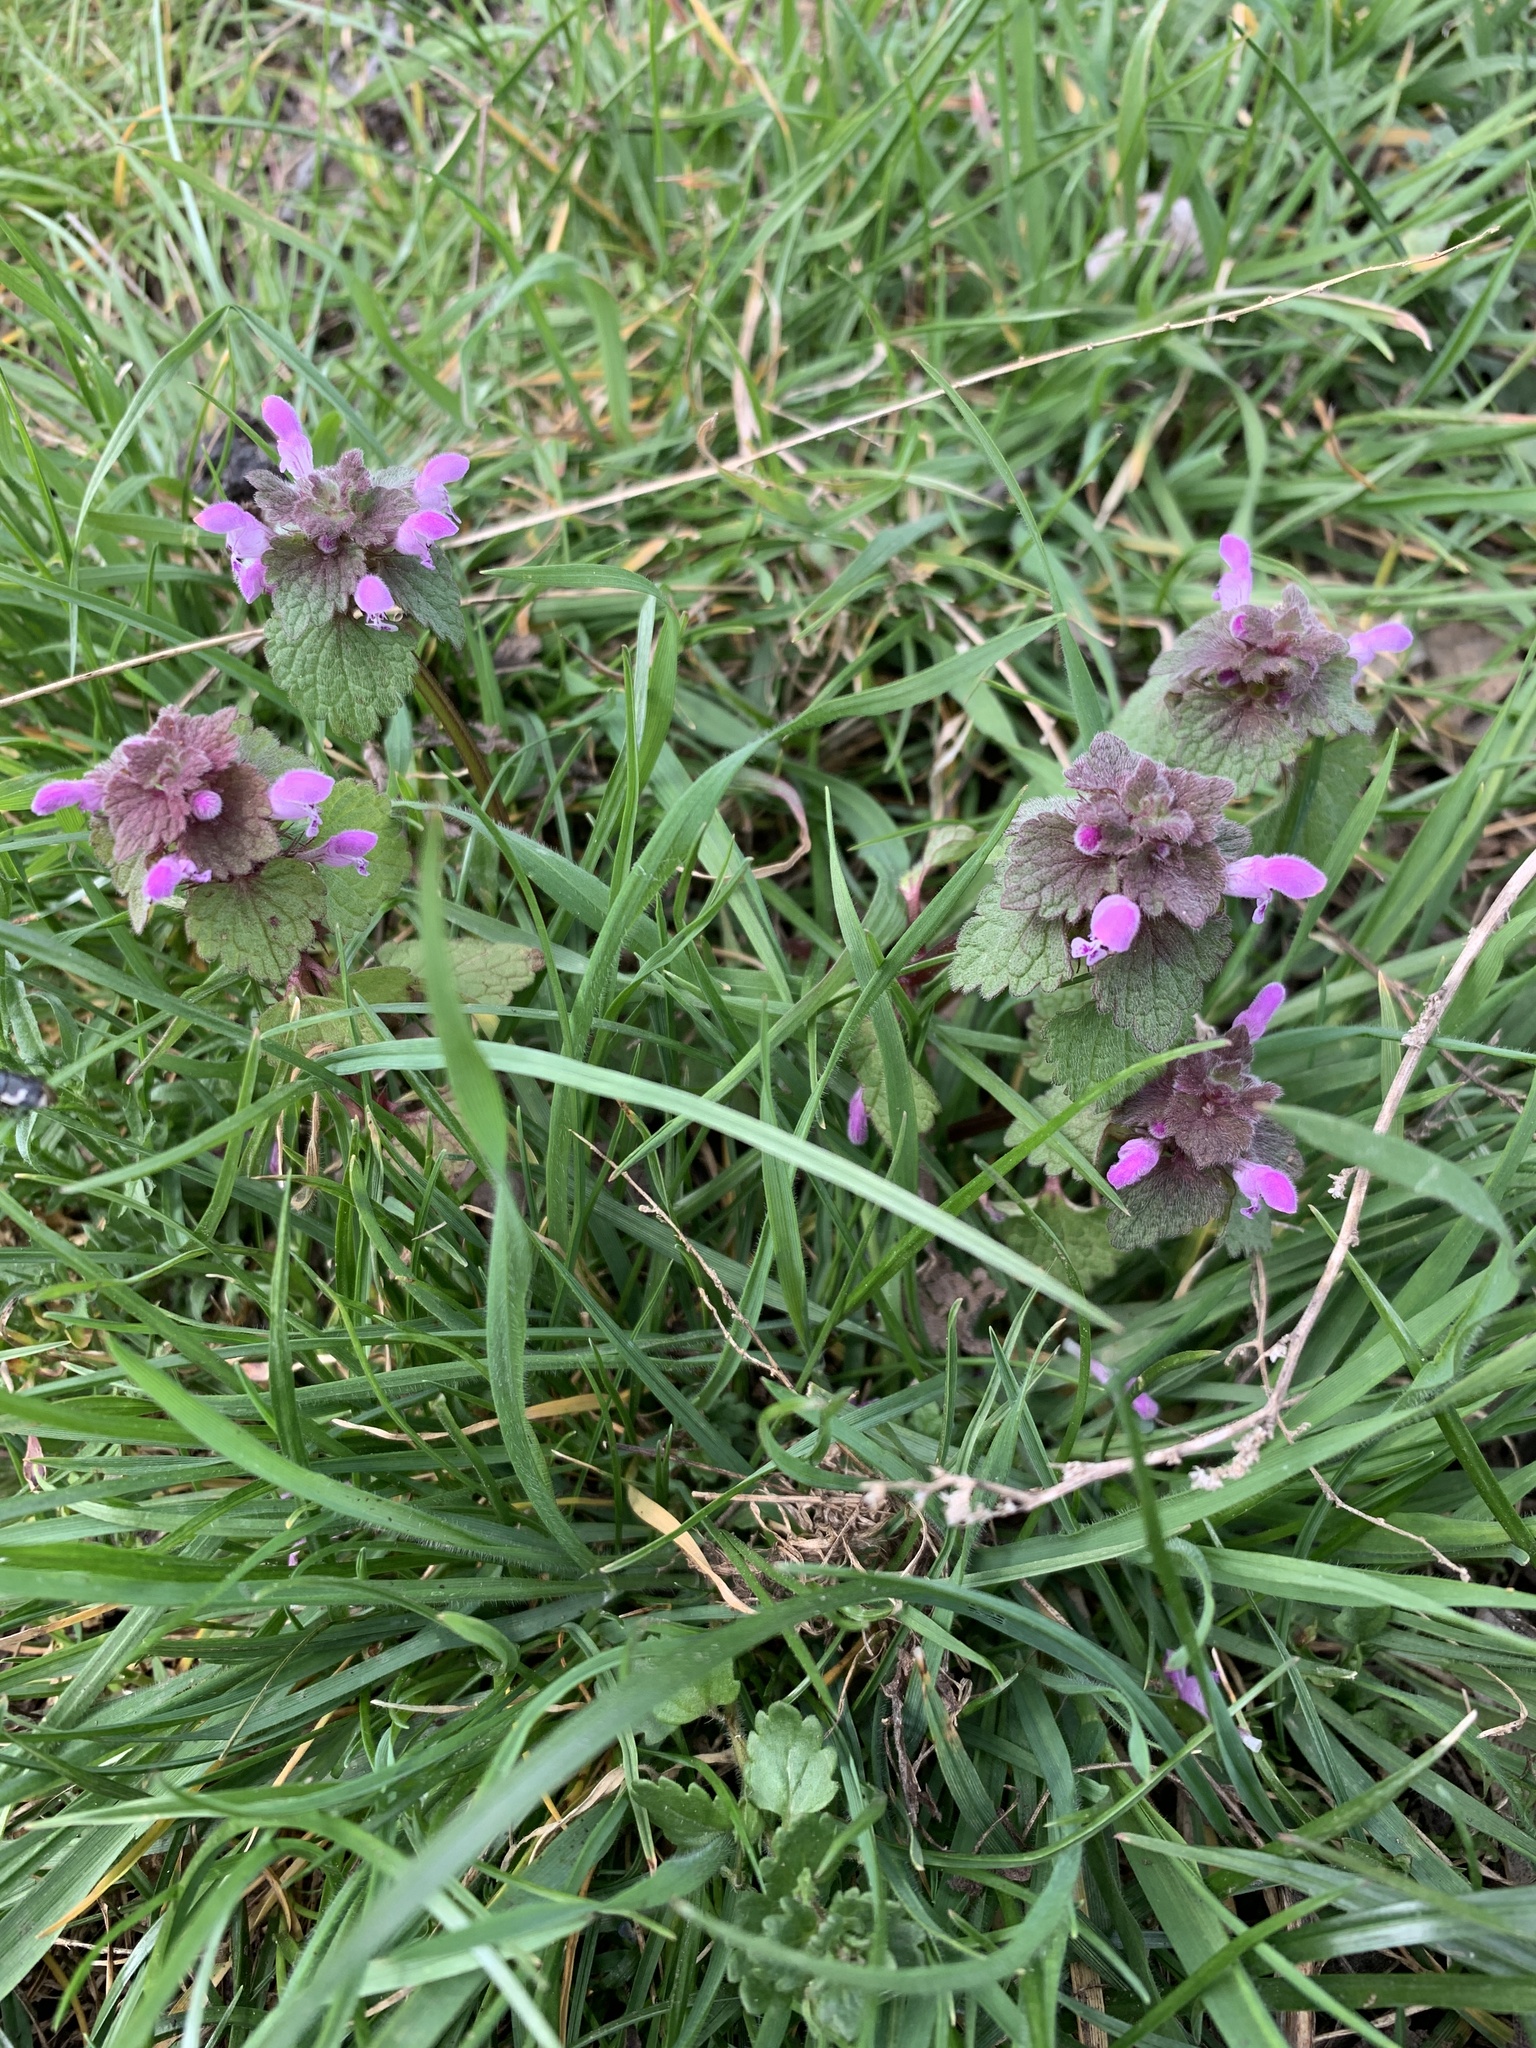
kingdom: Plantae
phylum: Tracheophyta
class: Magnoliopsida
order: Lamiales
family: Lamiaceae
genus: Lamium
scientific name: Lamium purpureum
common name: Red dead-nettle
